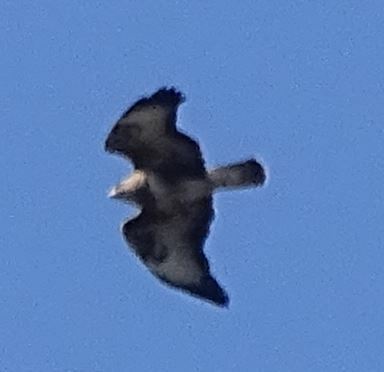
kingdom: Animalia
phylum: Chordata
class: Aves
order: Accipitriformes
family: Accipitridae
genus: Buteo
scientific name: Buteo buteo
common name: Common buzzard
